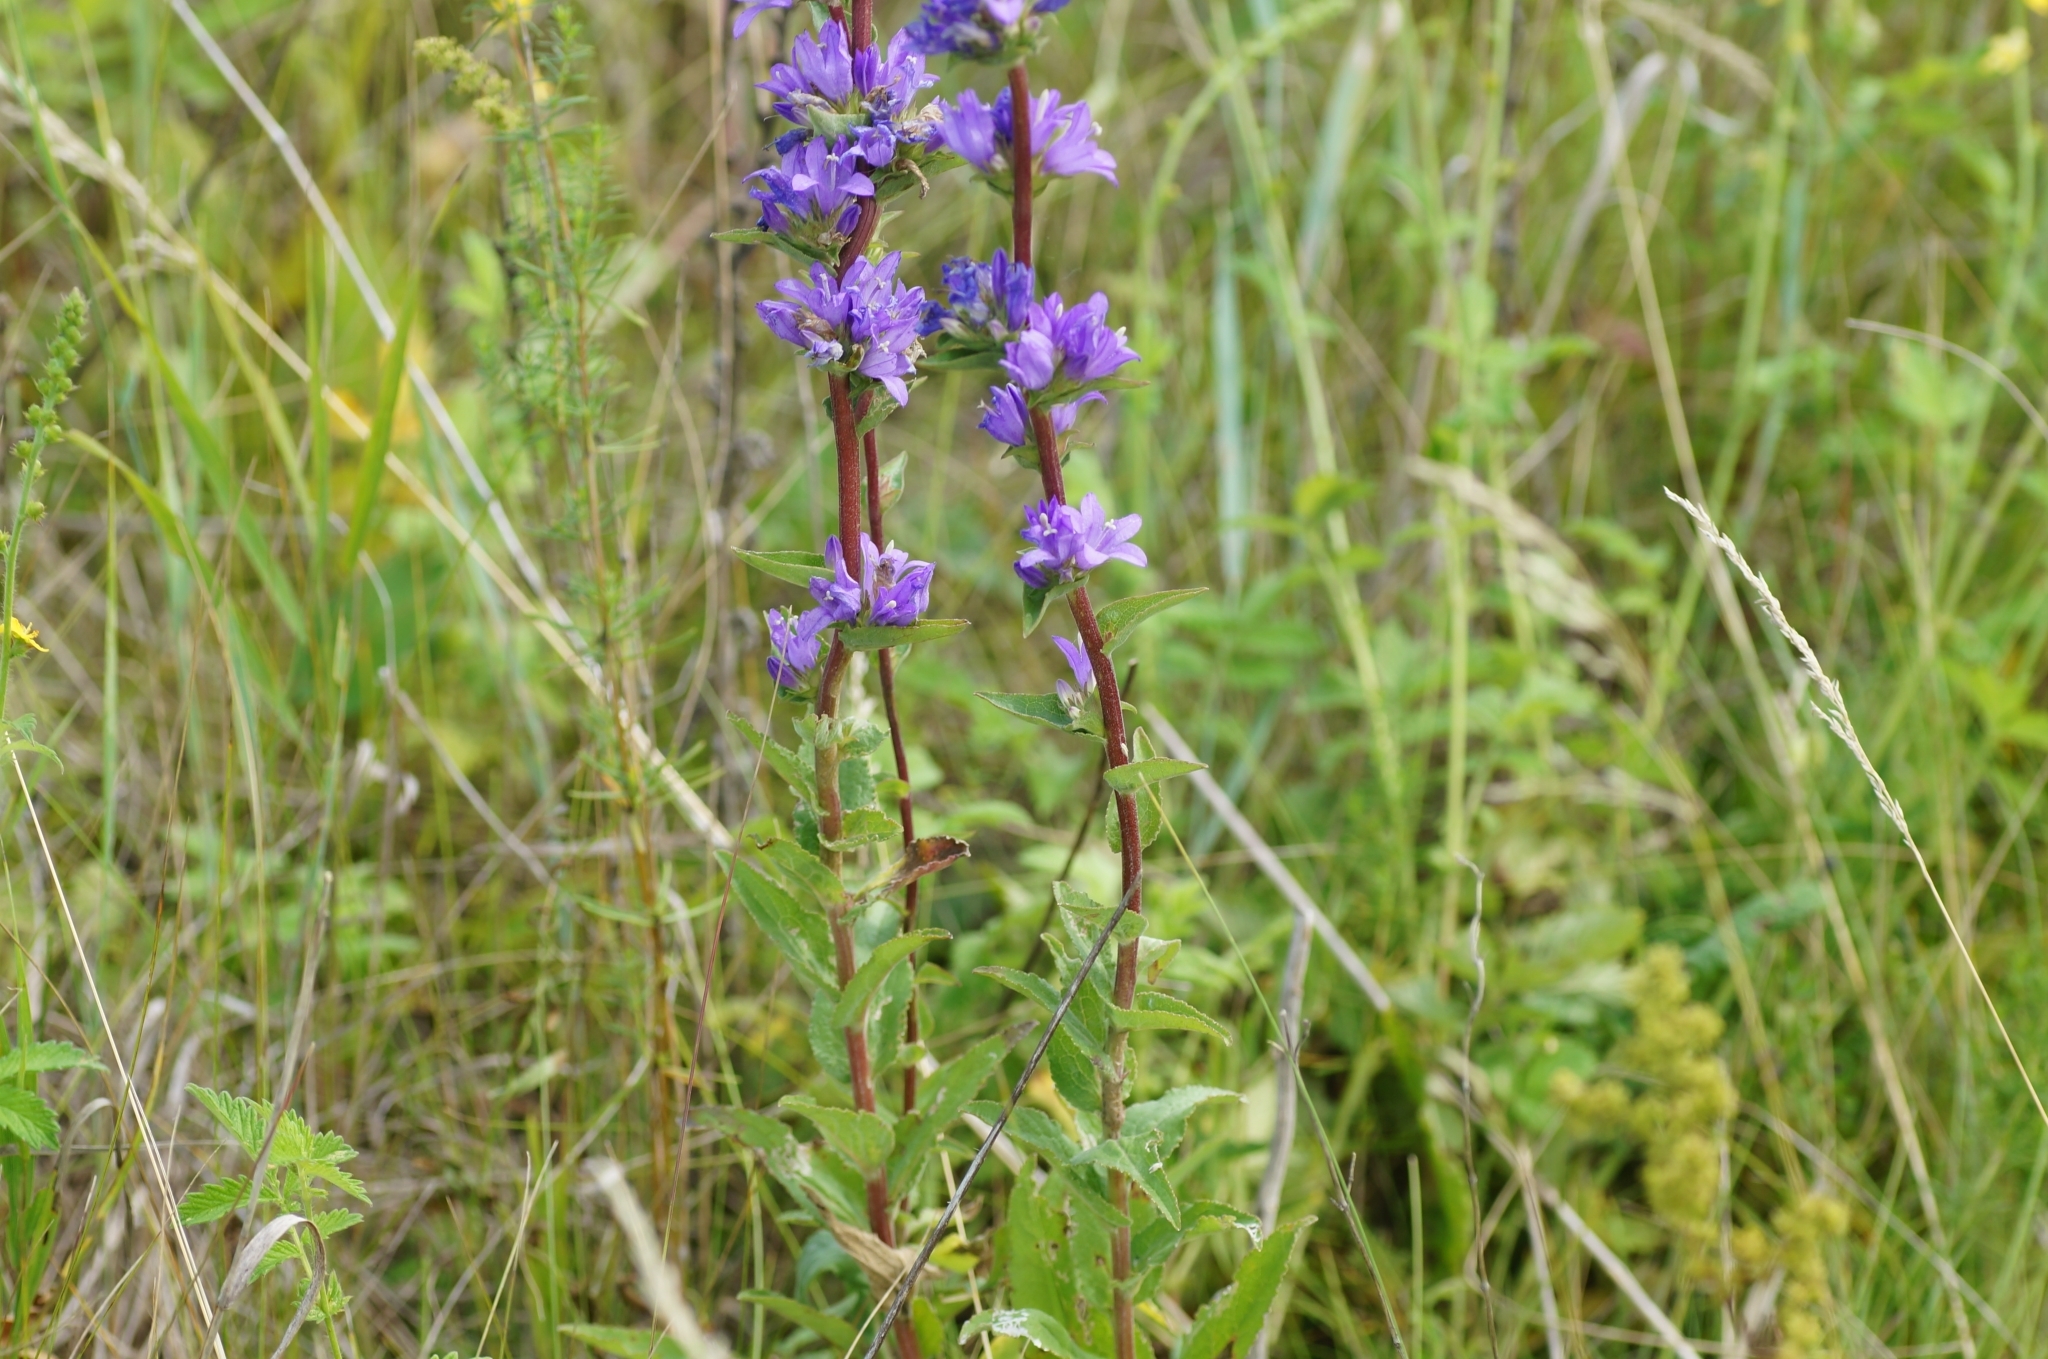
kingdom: Plantae
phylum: Tracheophyta
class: Magnoliopsida
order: Asterales
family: Campanulaceae
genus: Campanula
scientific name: Campanula glomerata
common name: Clustered bellflower
